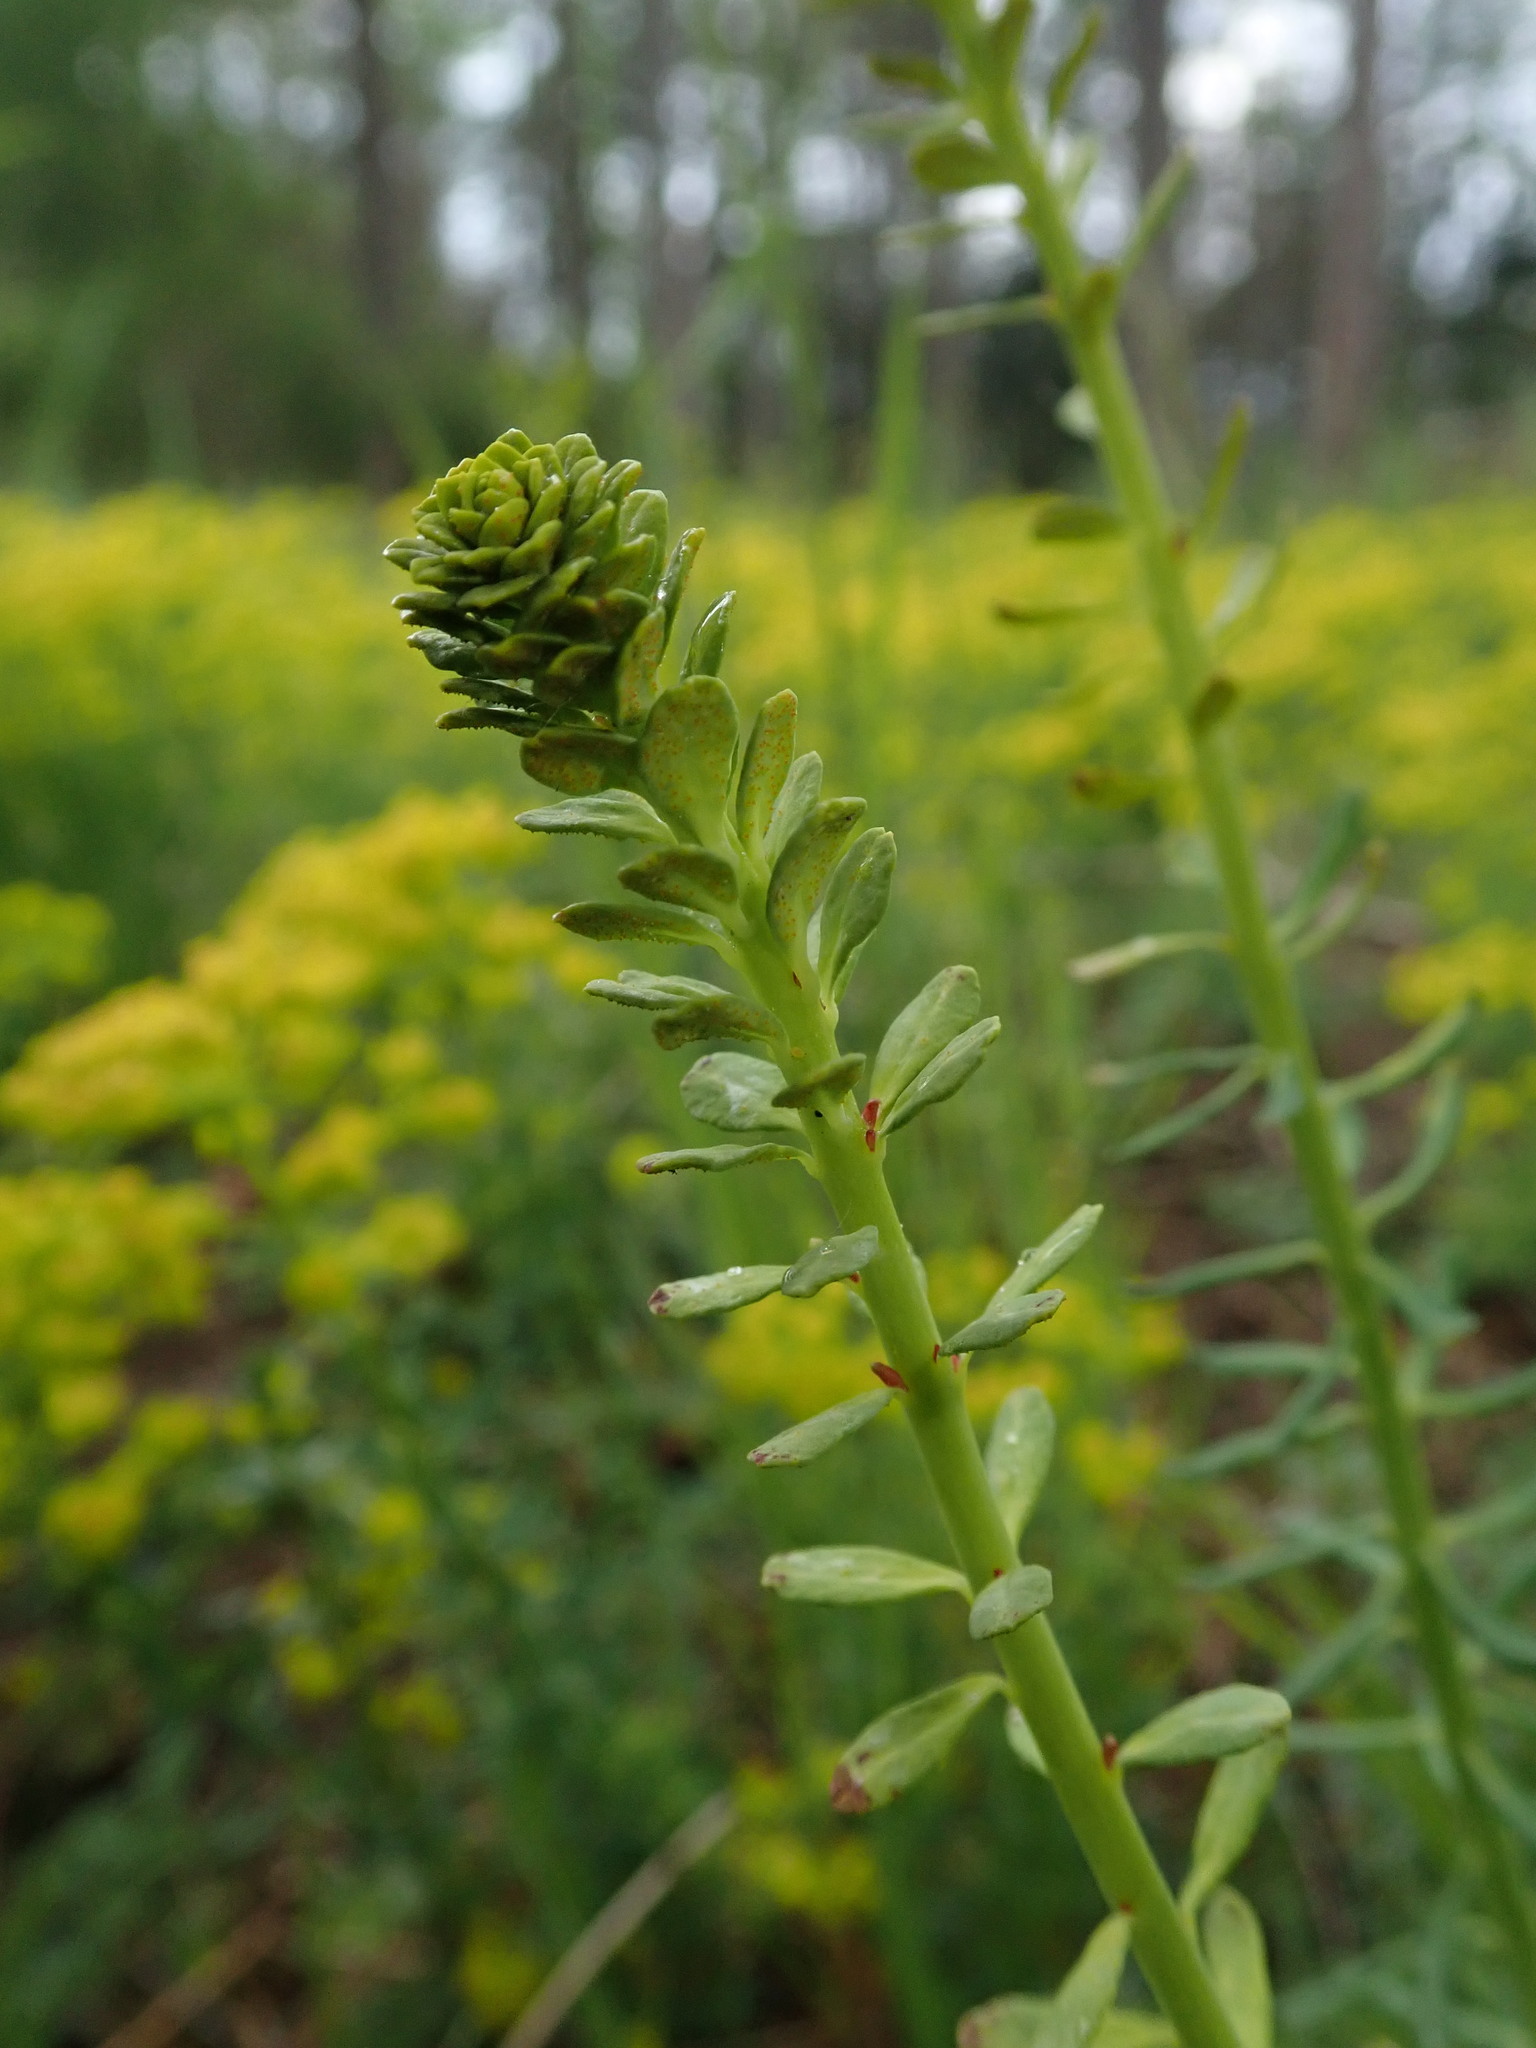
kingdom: Plantae
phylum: Tracheophyta
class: Magnoliopsida
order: Malpighiales
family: Euphorbiaceae
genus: Euphorbia
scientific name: Euphorbia cyparissias
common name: Cypress spurge
